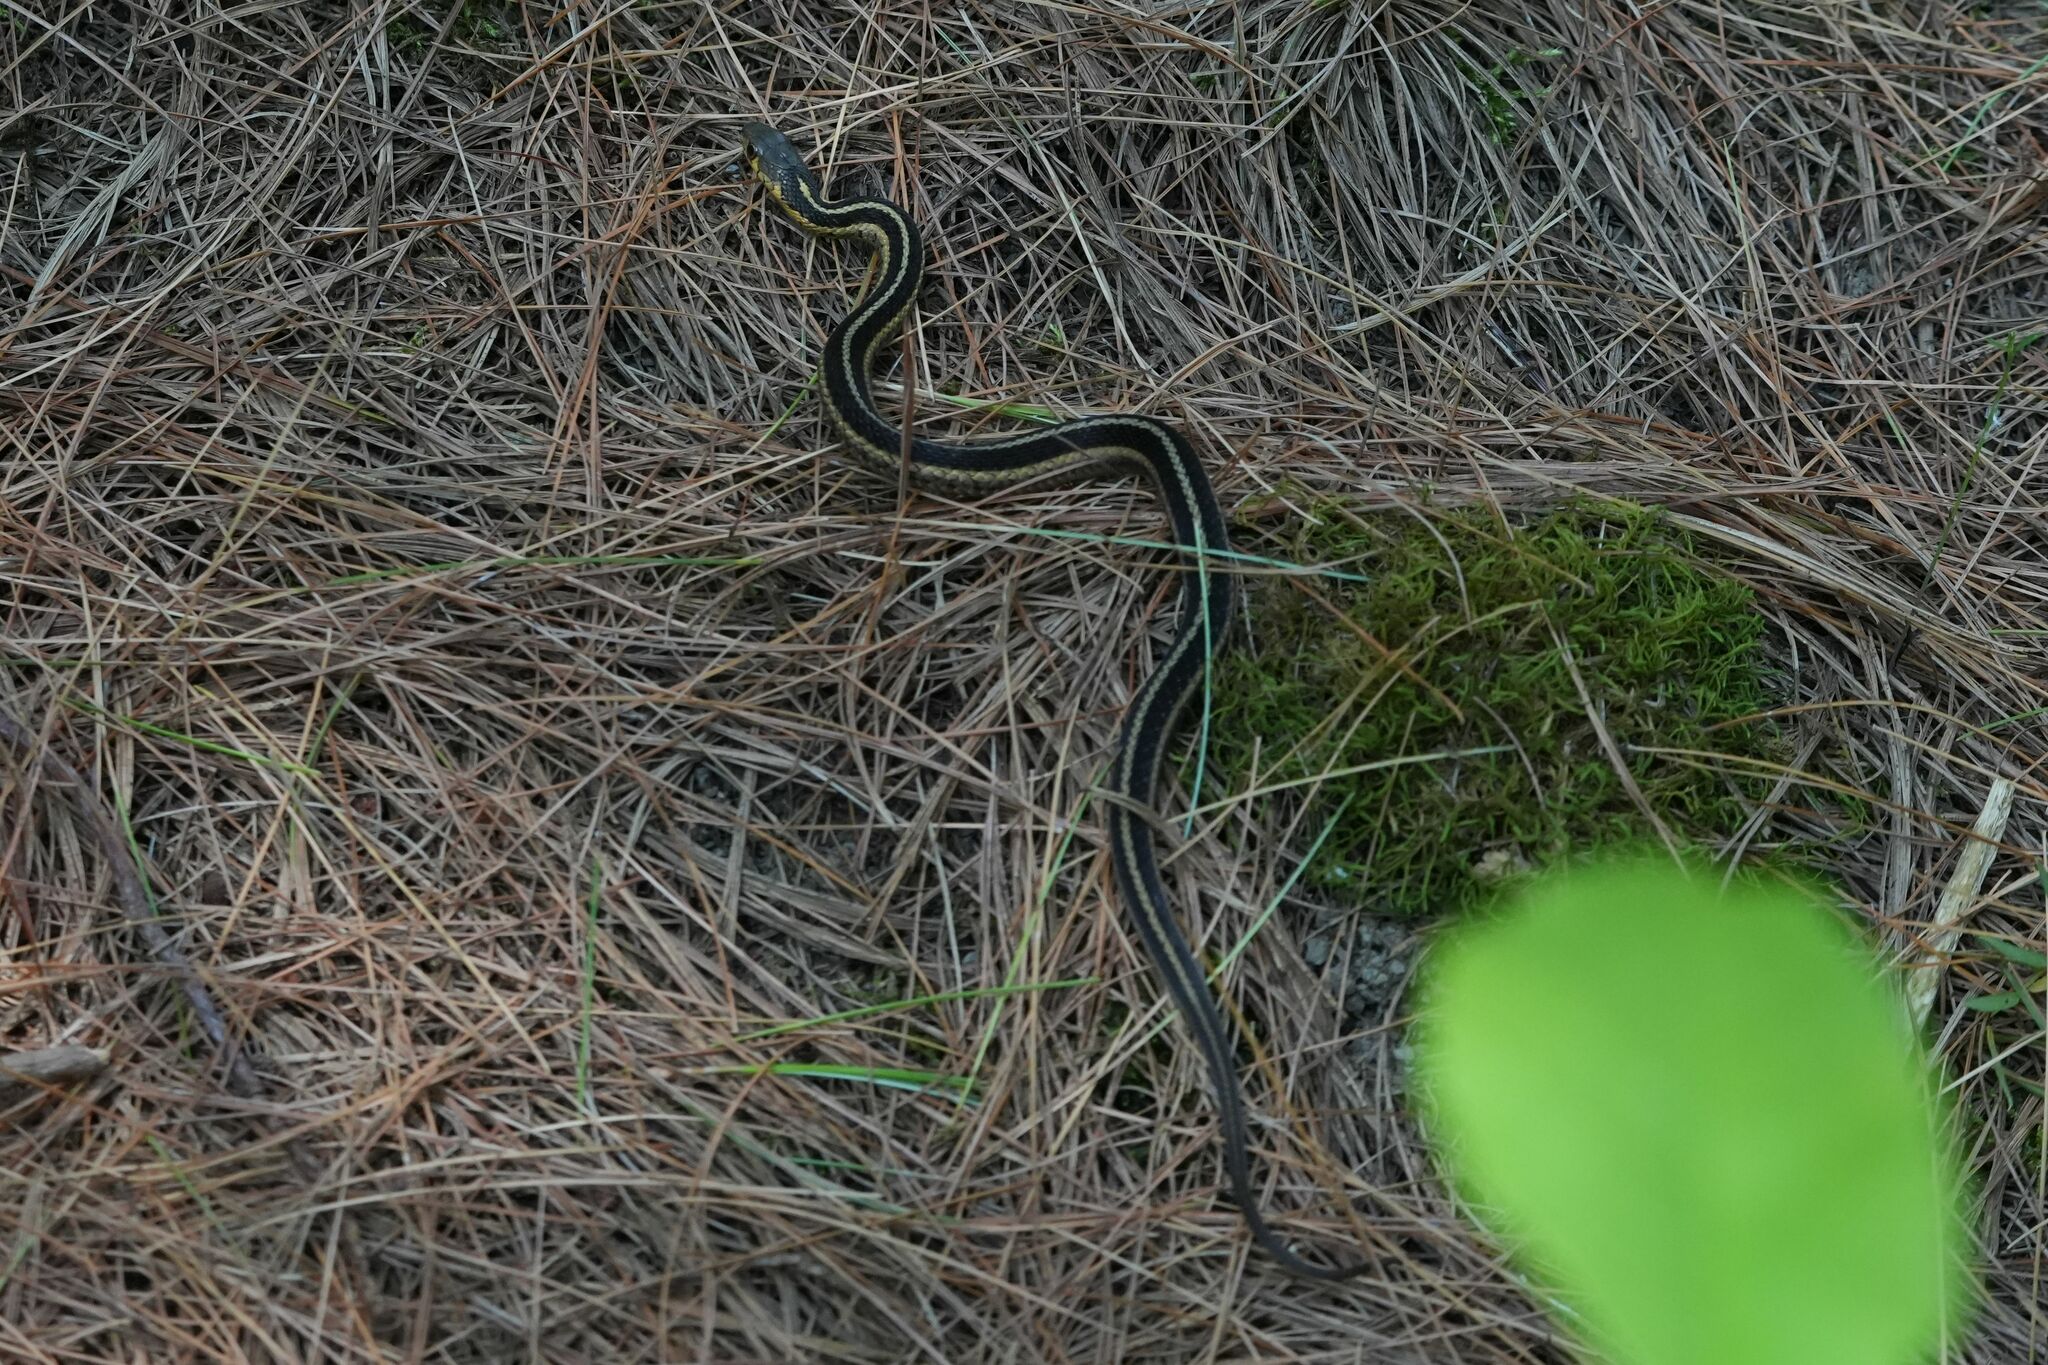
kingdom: Animalia
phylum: Chordata
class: Squamata
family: Colubridae
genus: Thamnophis
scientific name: Thamnophis sirtalis
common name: Common garter snake
